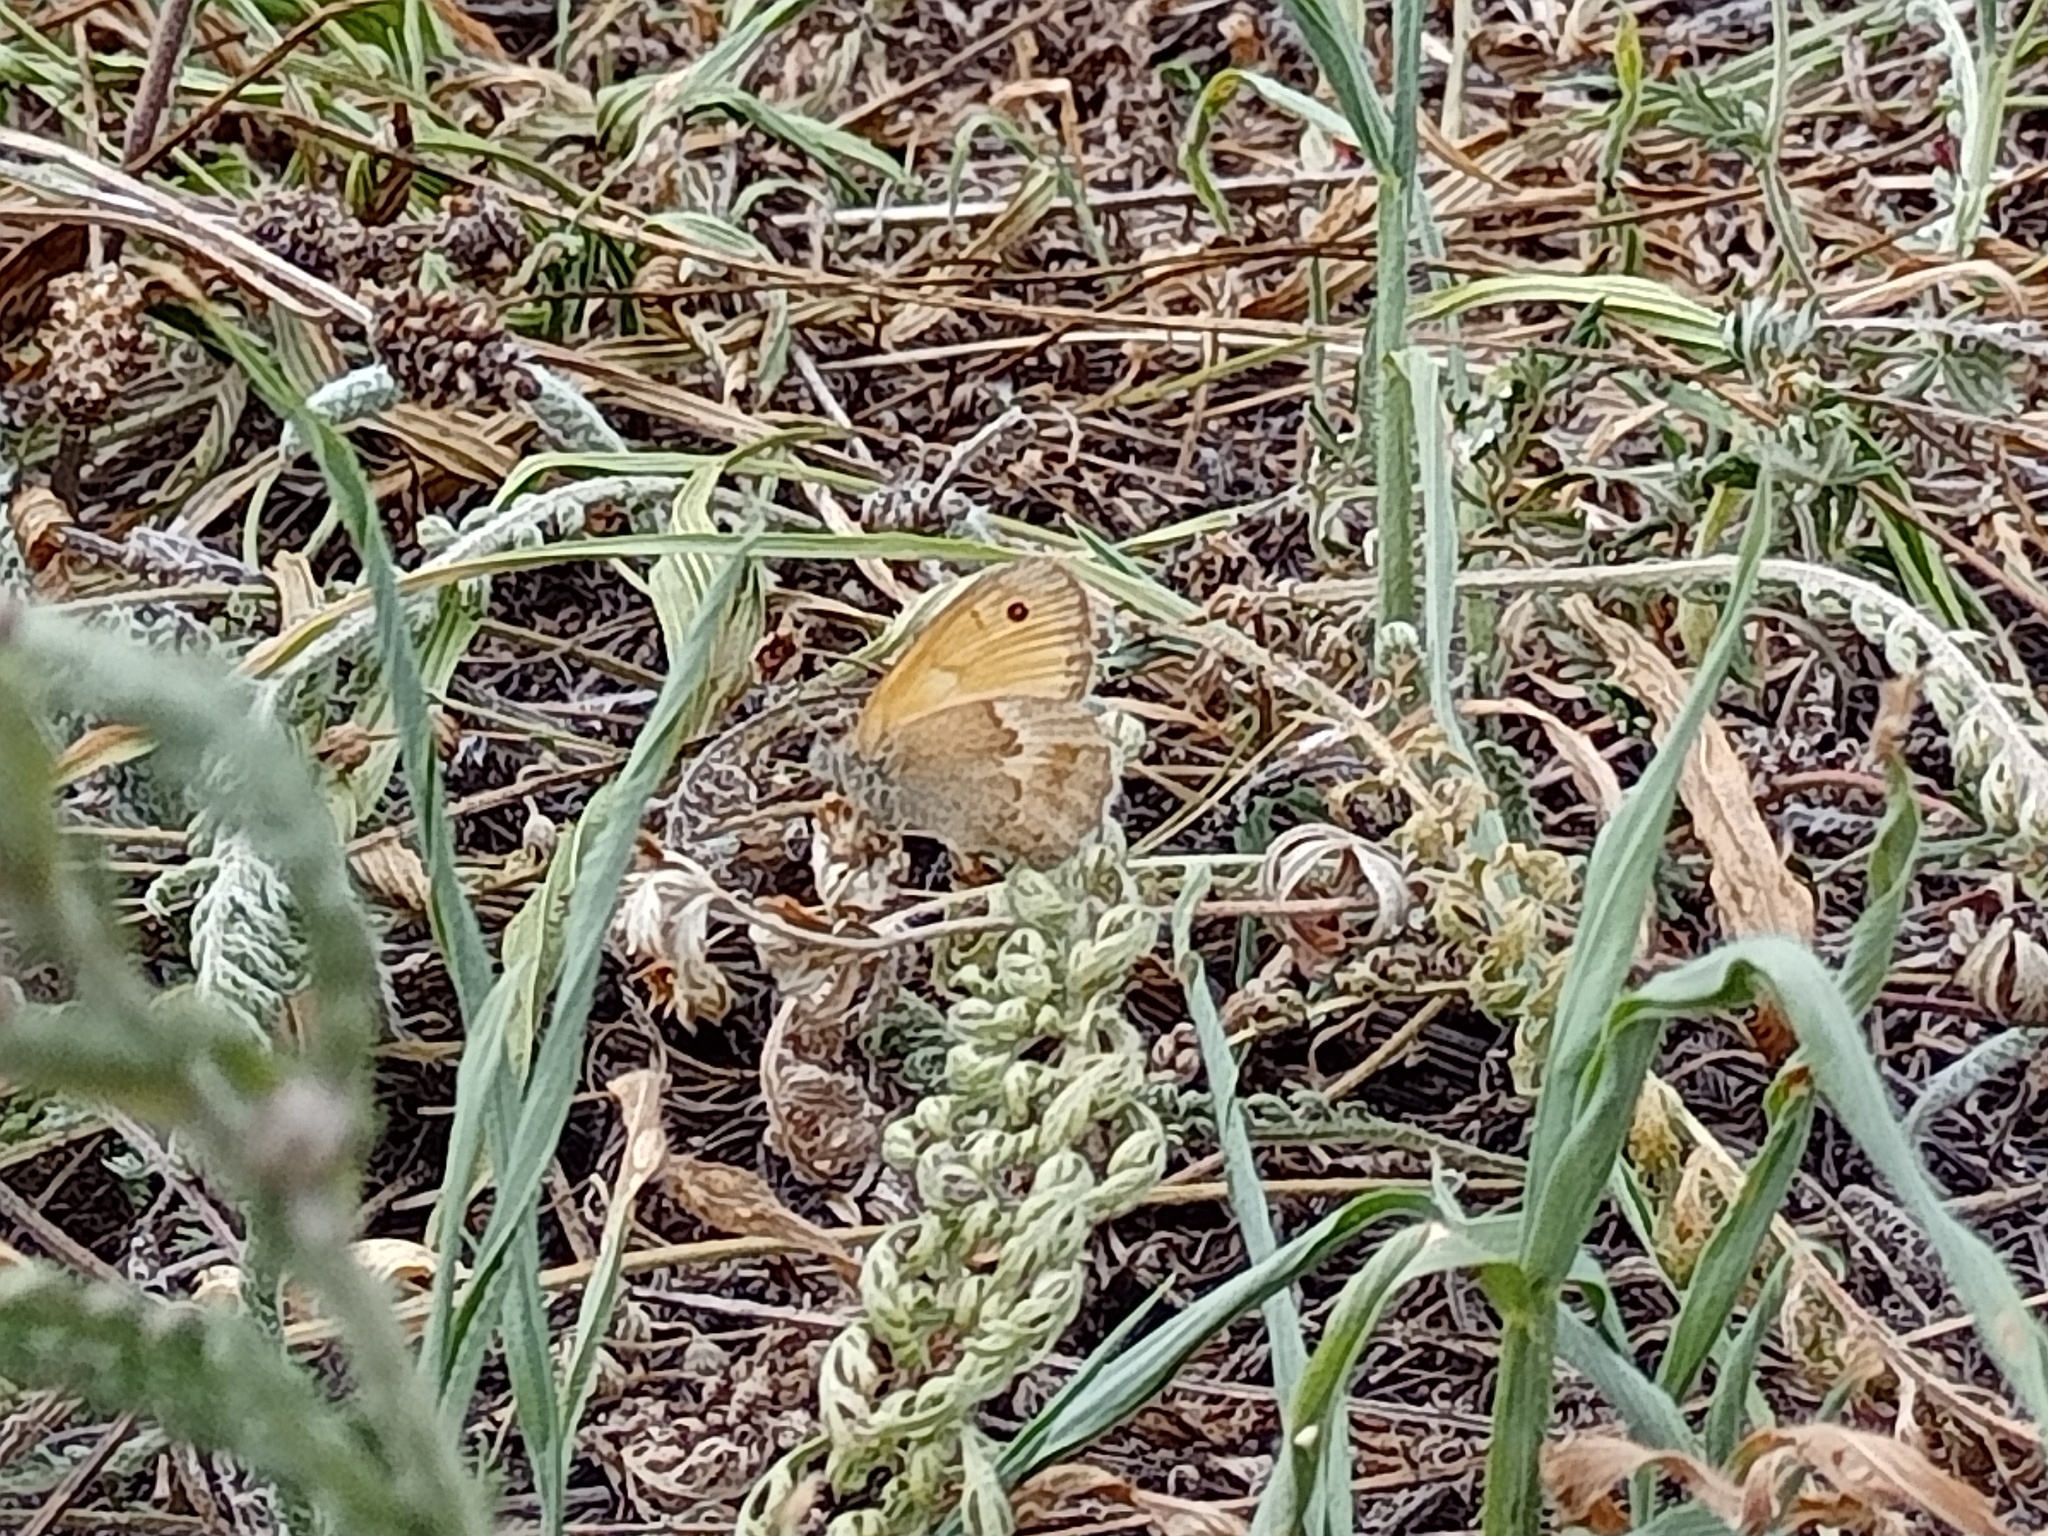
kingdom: Animalia
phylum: Arthropoda
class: Insecta
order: Lepidoptera
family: Nymphalidae
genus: Coenonympha
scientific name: Coenonympha pamphilus
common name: Small heath
